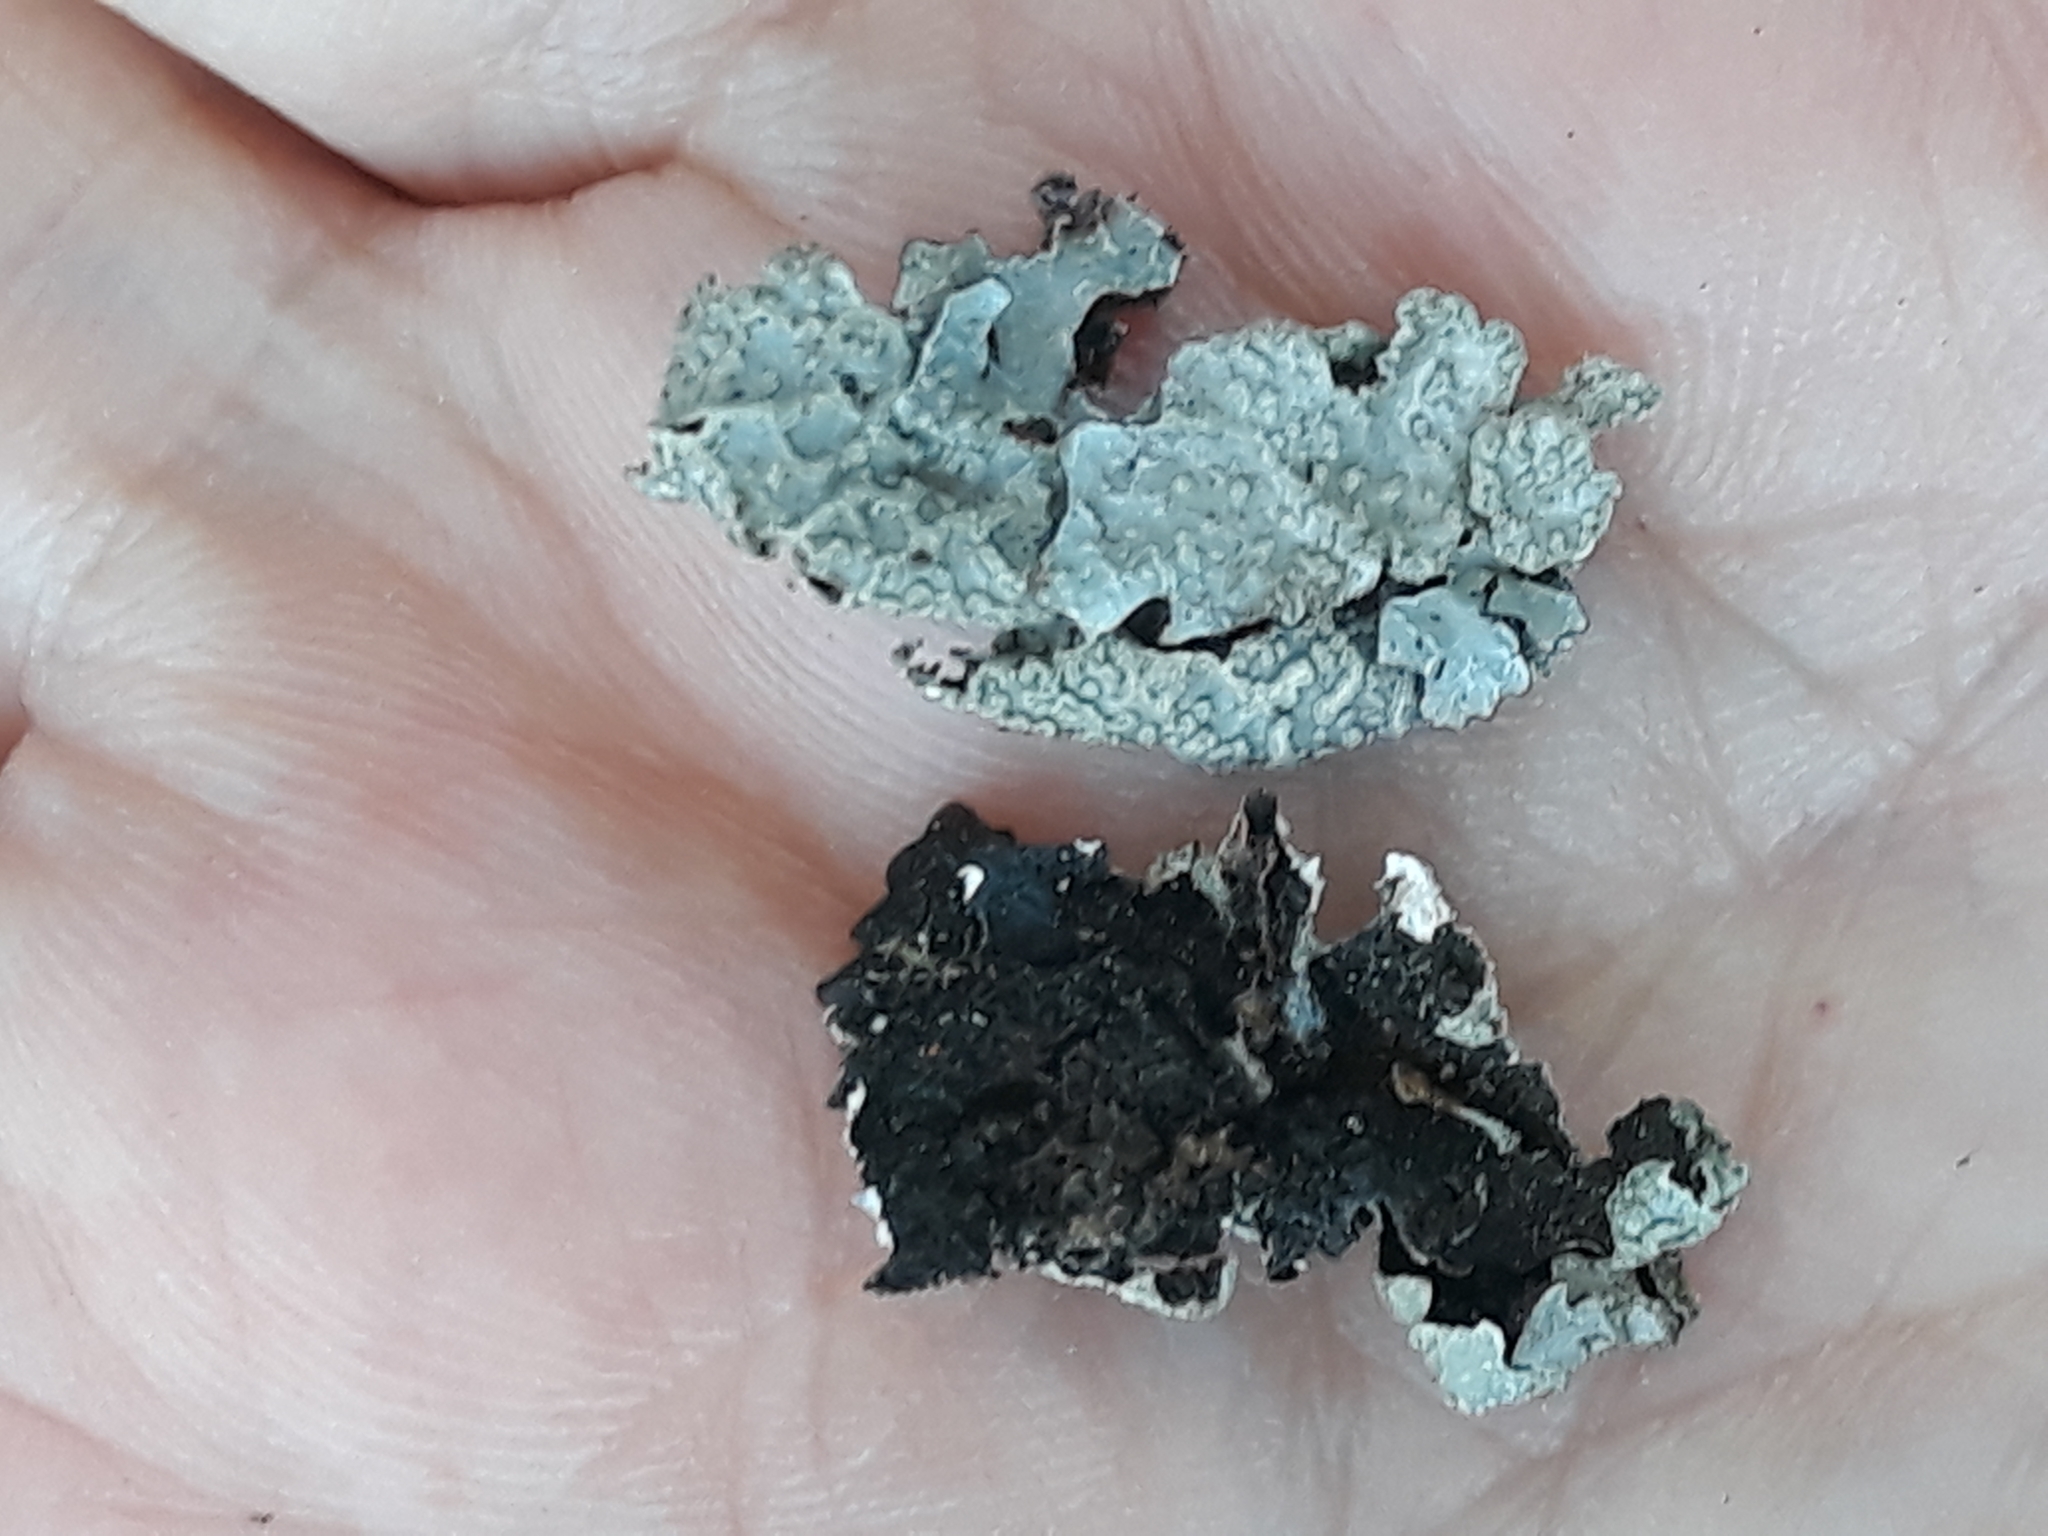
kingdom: Fungi
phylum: Ascomycota
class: Lecanoromycetes
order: Lecanorales
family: Parmeliaceae
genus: Parmelia
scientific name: Parmelia sulcata
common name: Netted shield lichen
